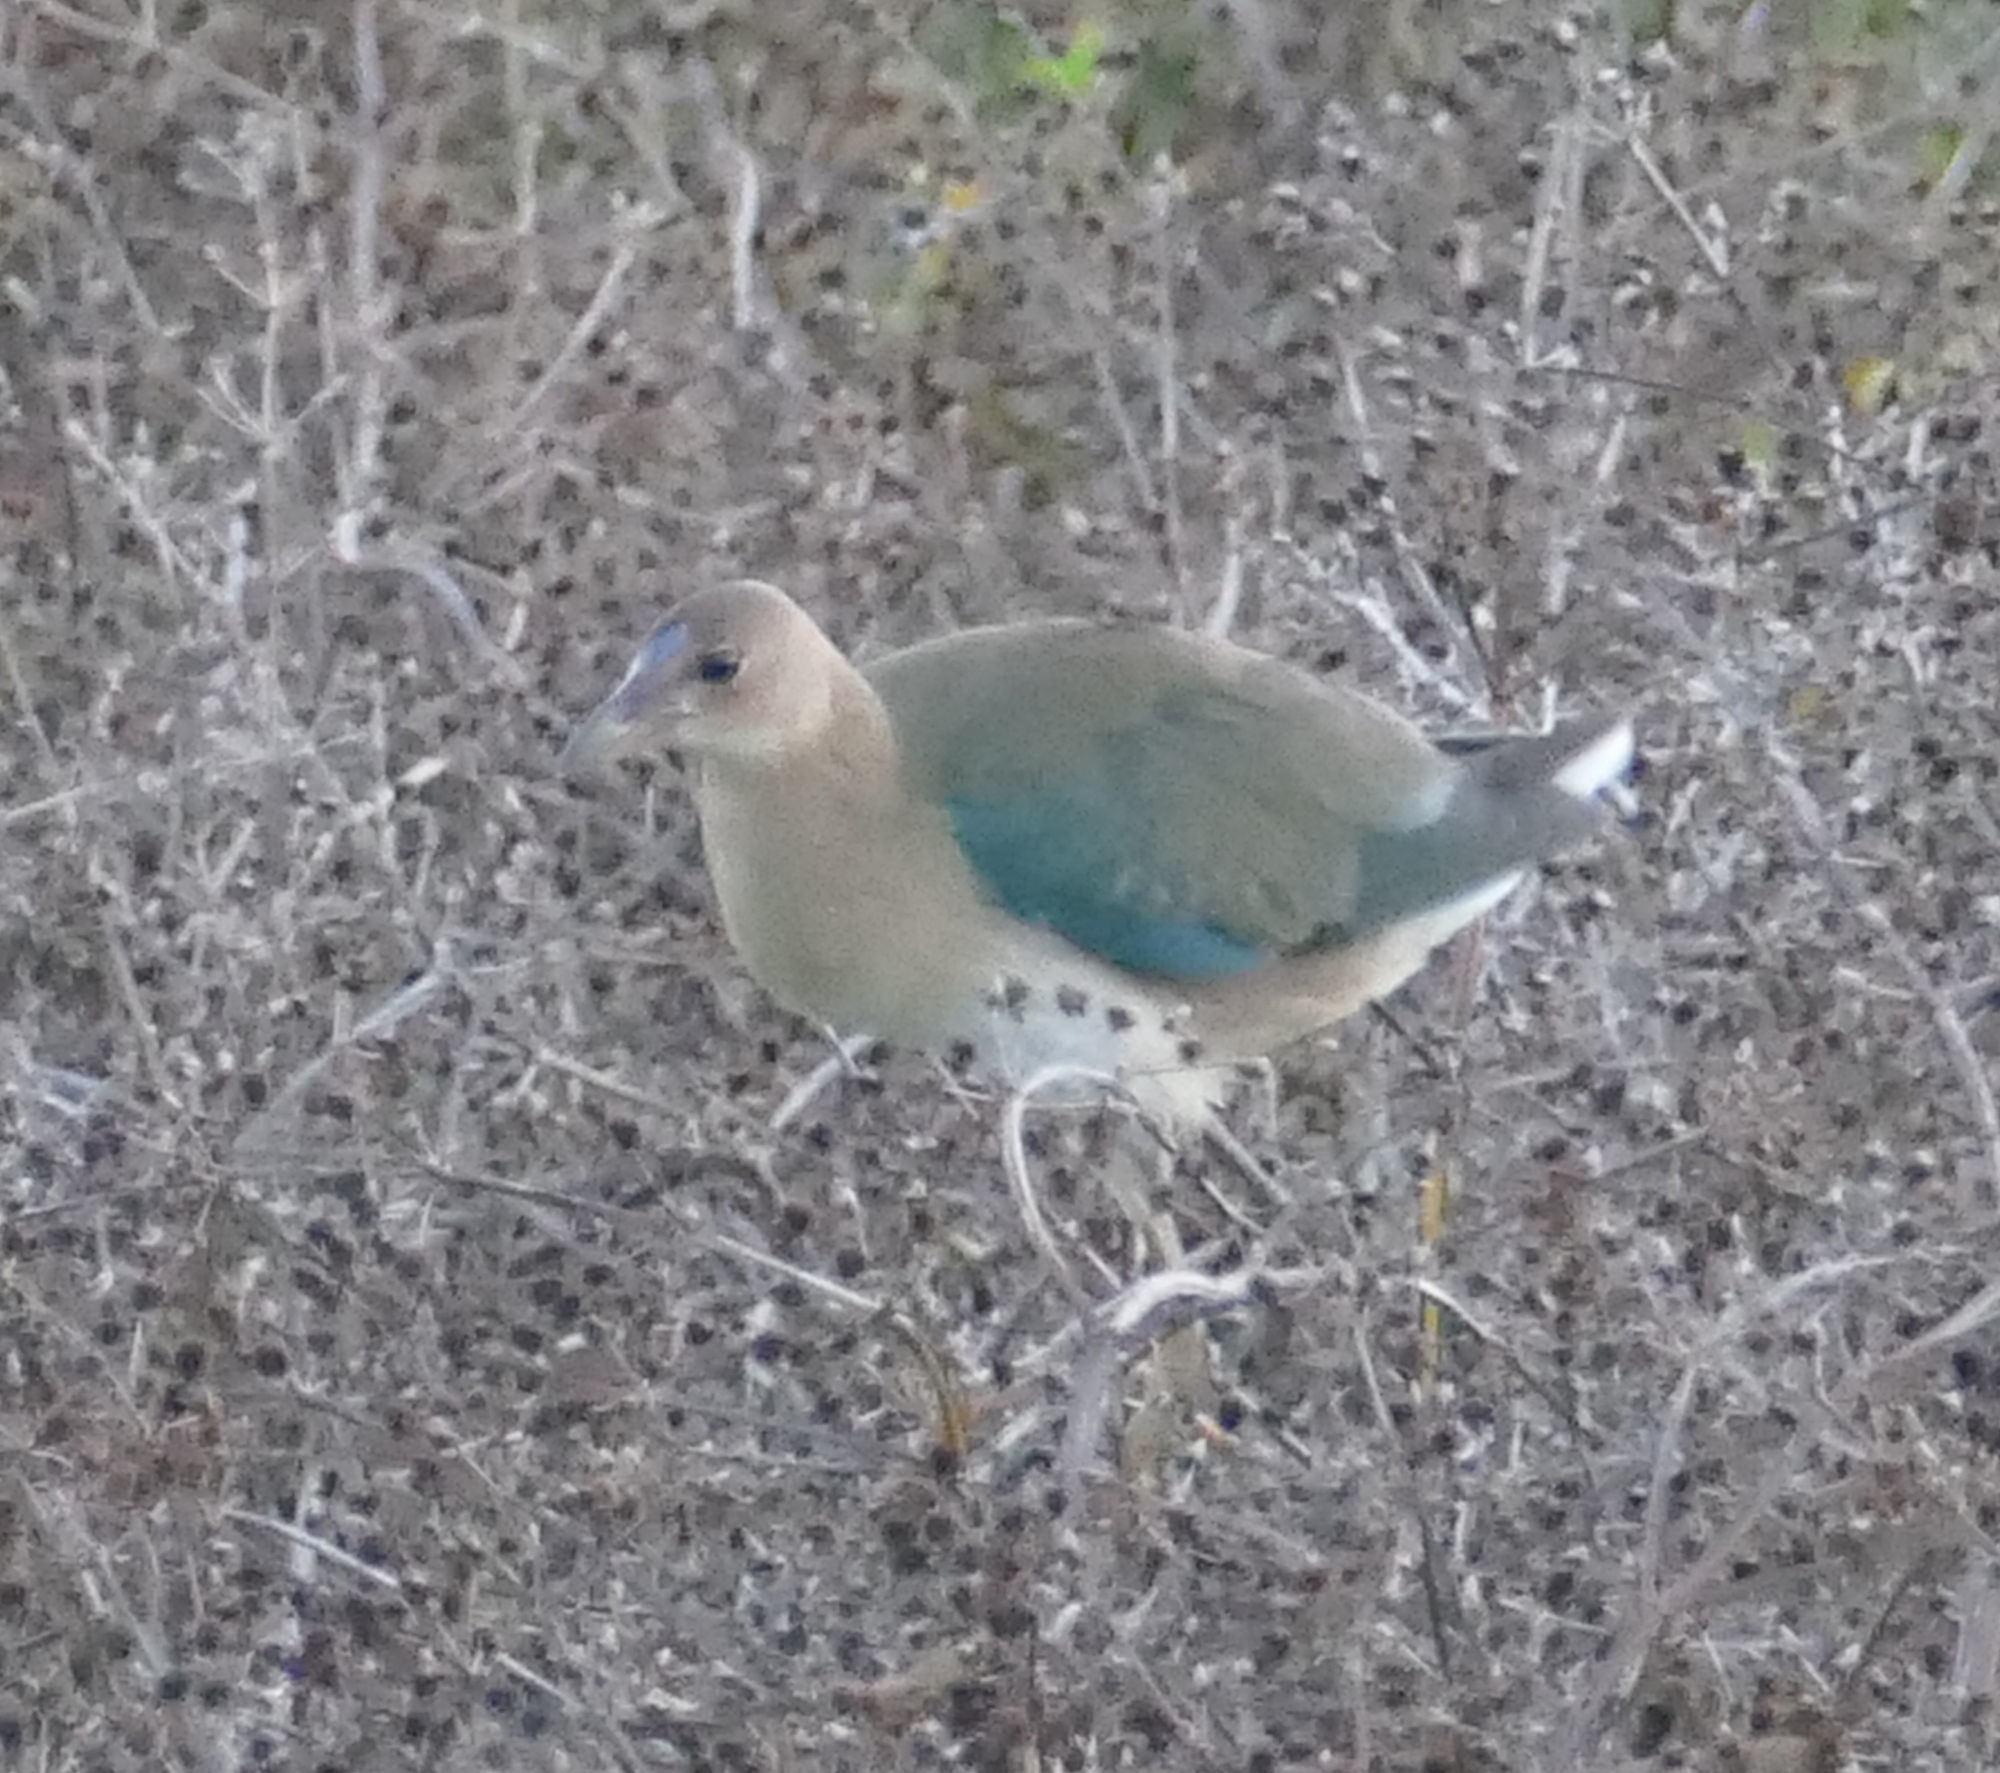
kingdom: Animalia
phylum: Chordata
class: Aves
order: Gruiformes
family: Rallidae
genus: Porphyrio
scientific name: Porphyrio martinica
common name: Purple gallinule
